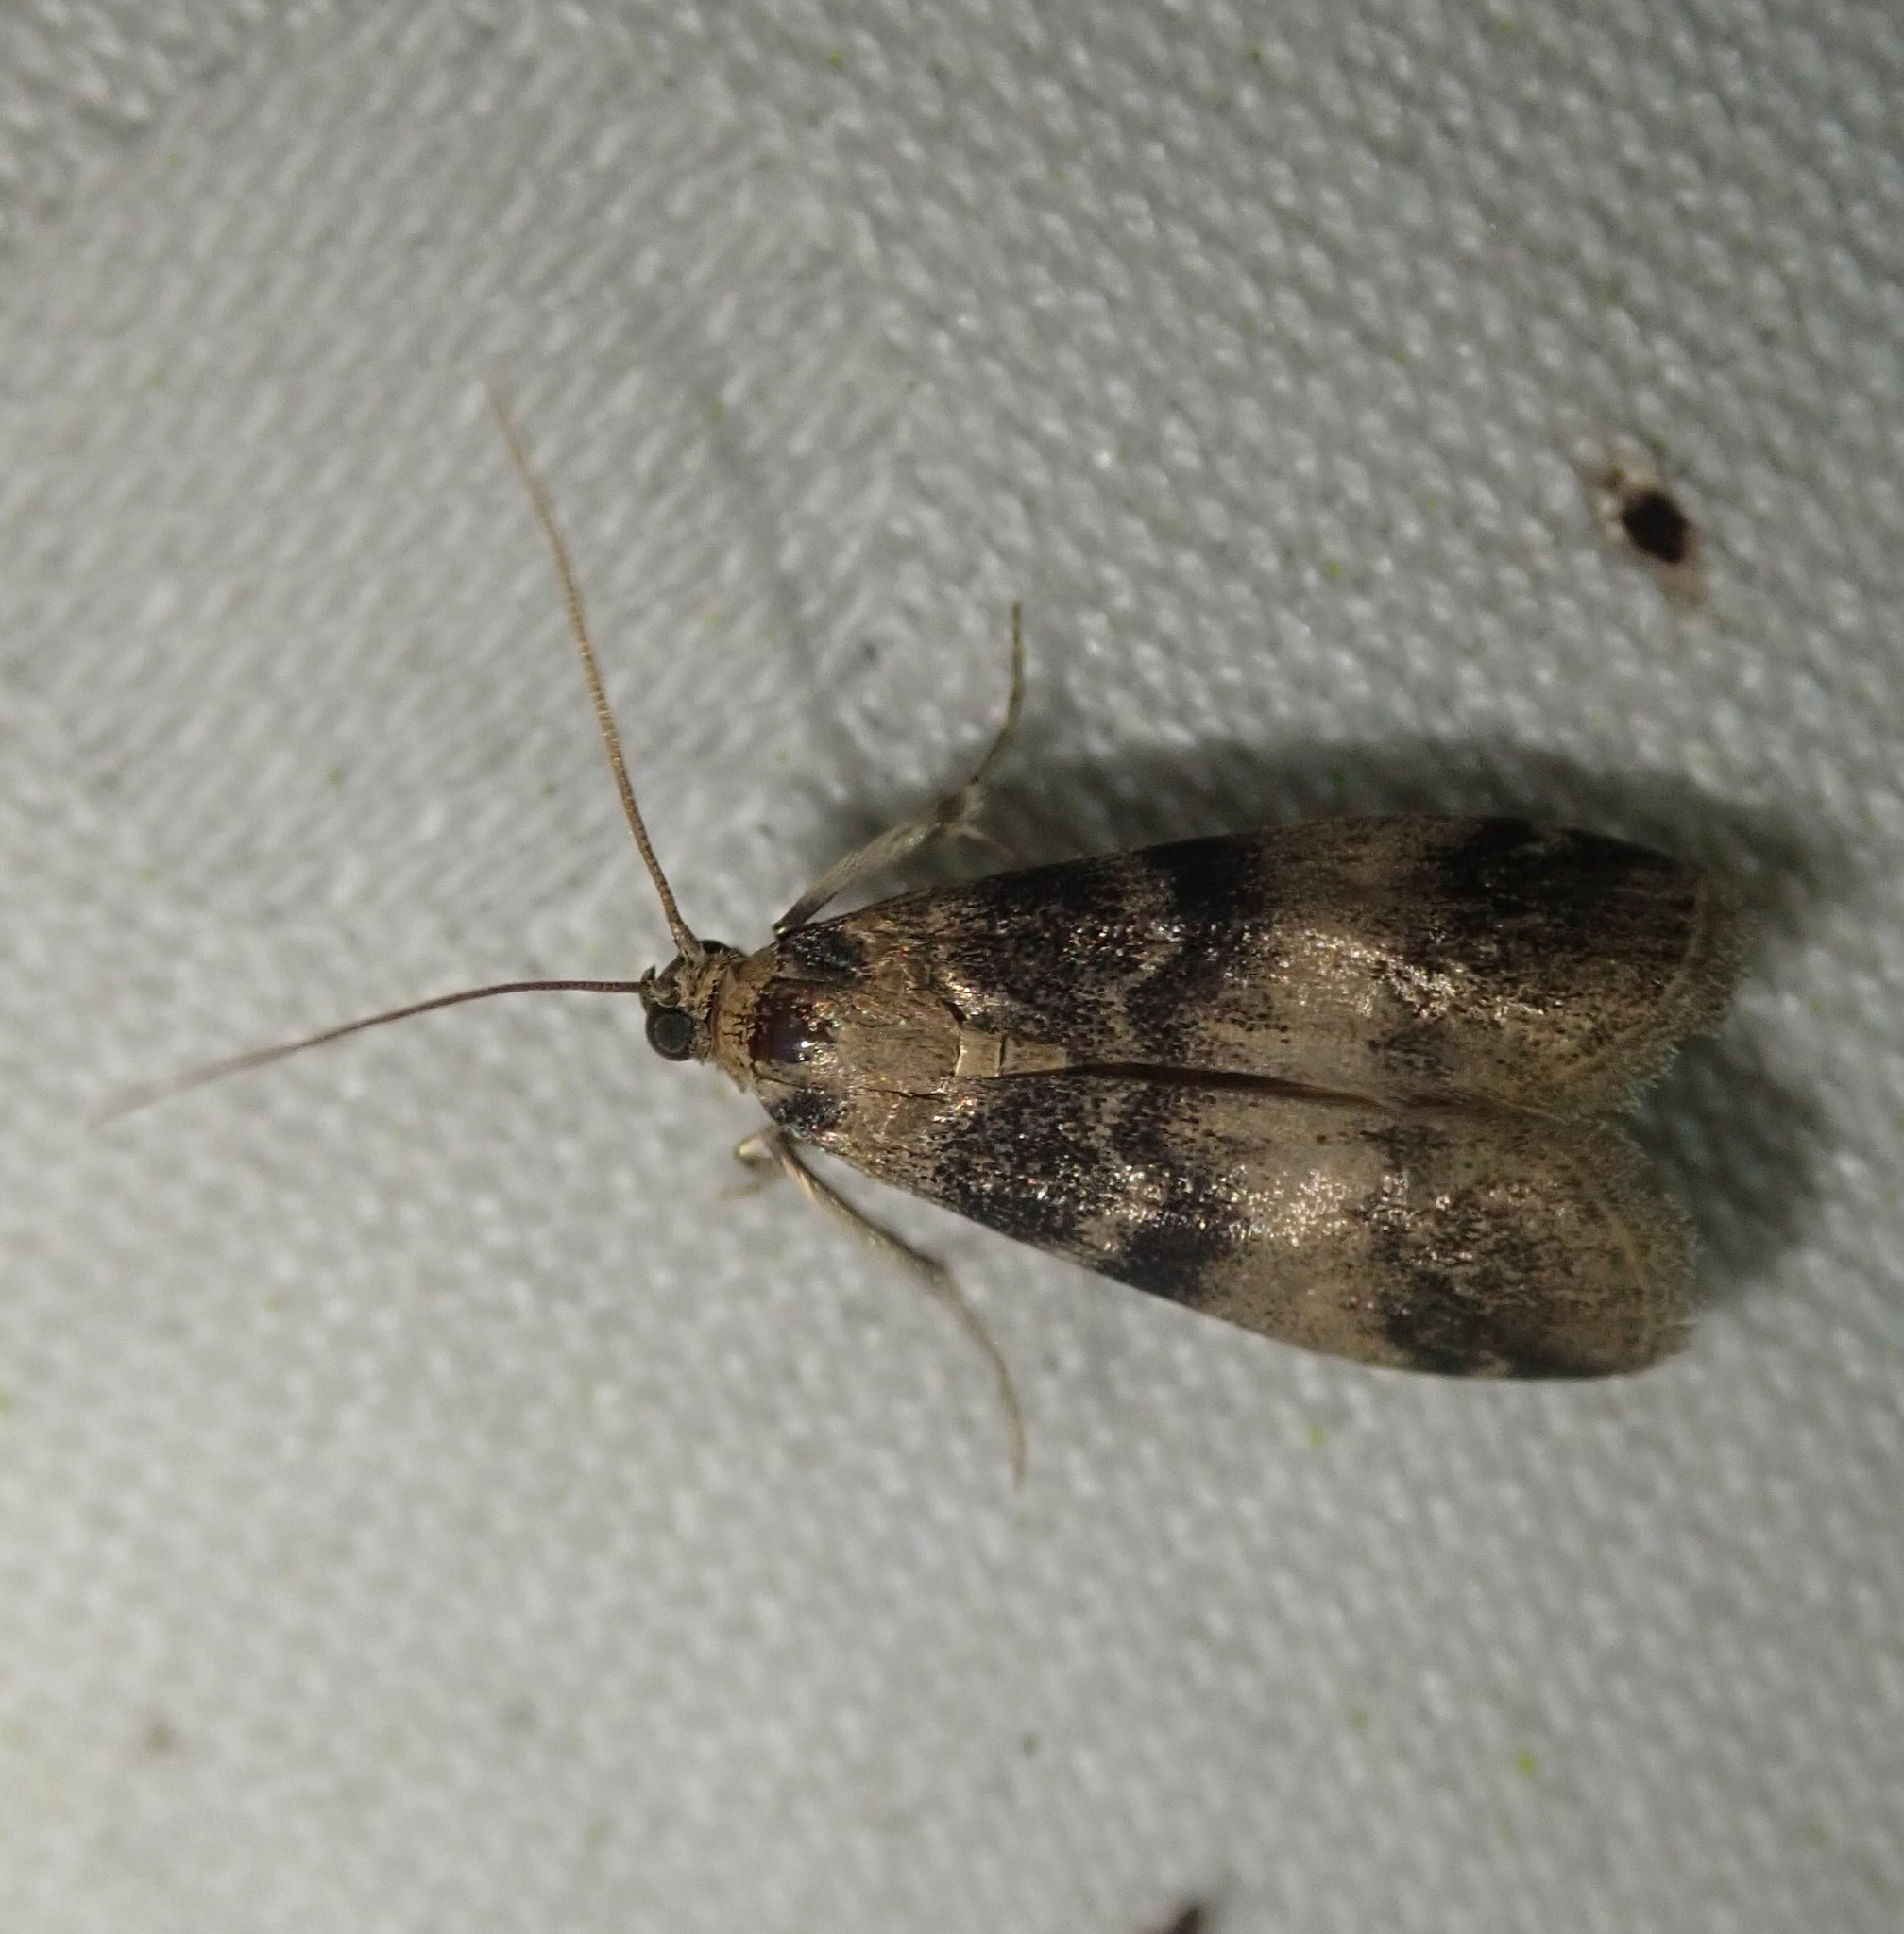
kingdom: Animalia
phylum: Arthropoda
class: Insecta
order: Lepidoptera
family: Pyralidae
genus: Euzophera
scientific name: Euzophera pinguis
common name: Ash-bark knot-horn
